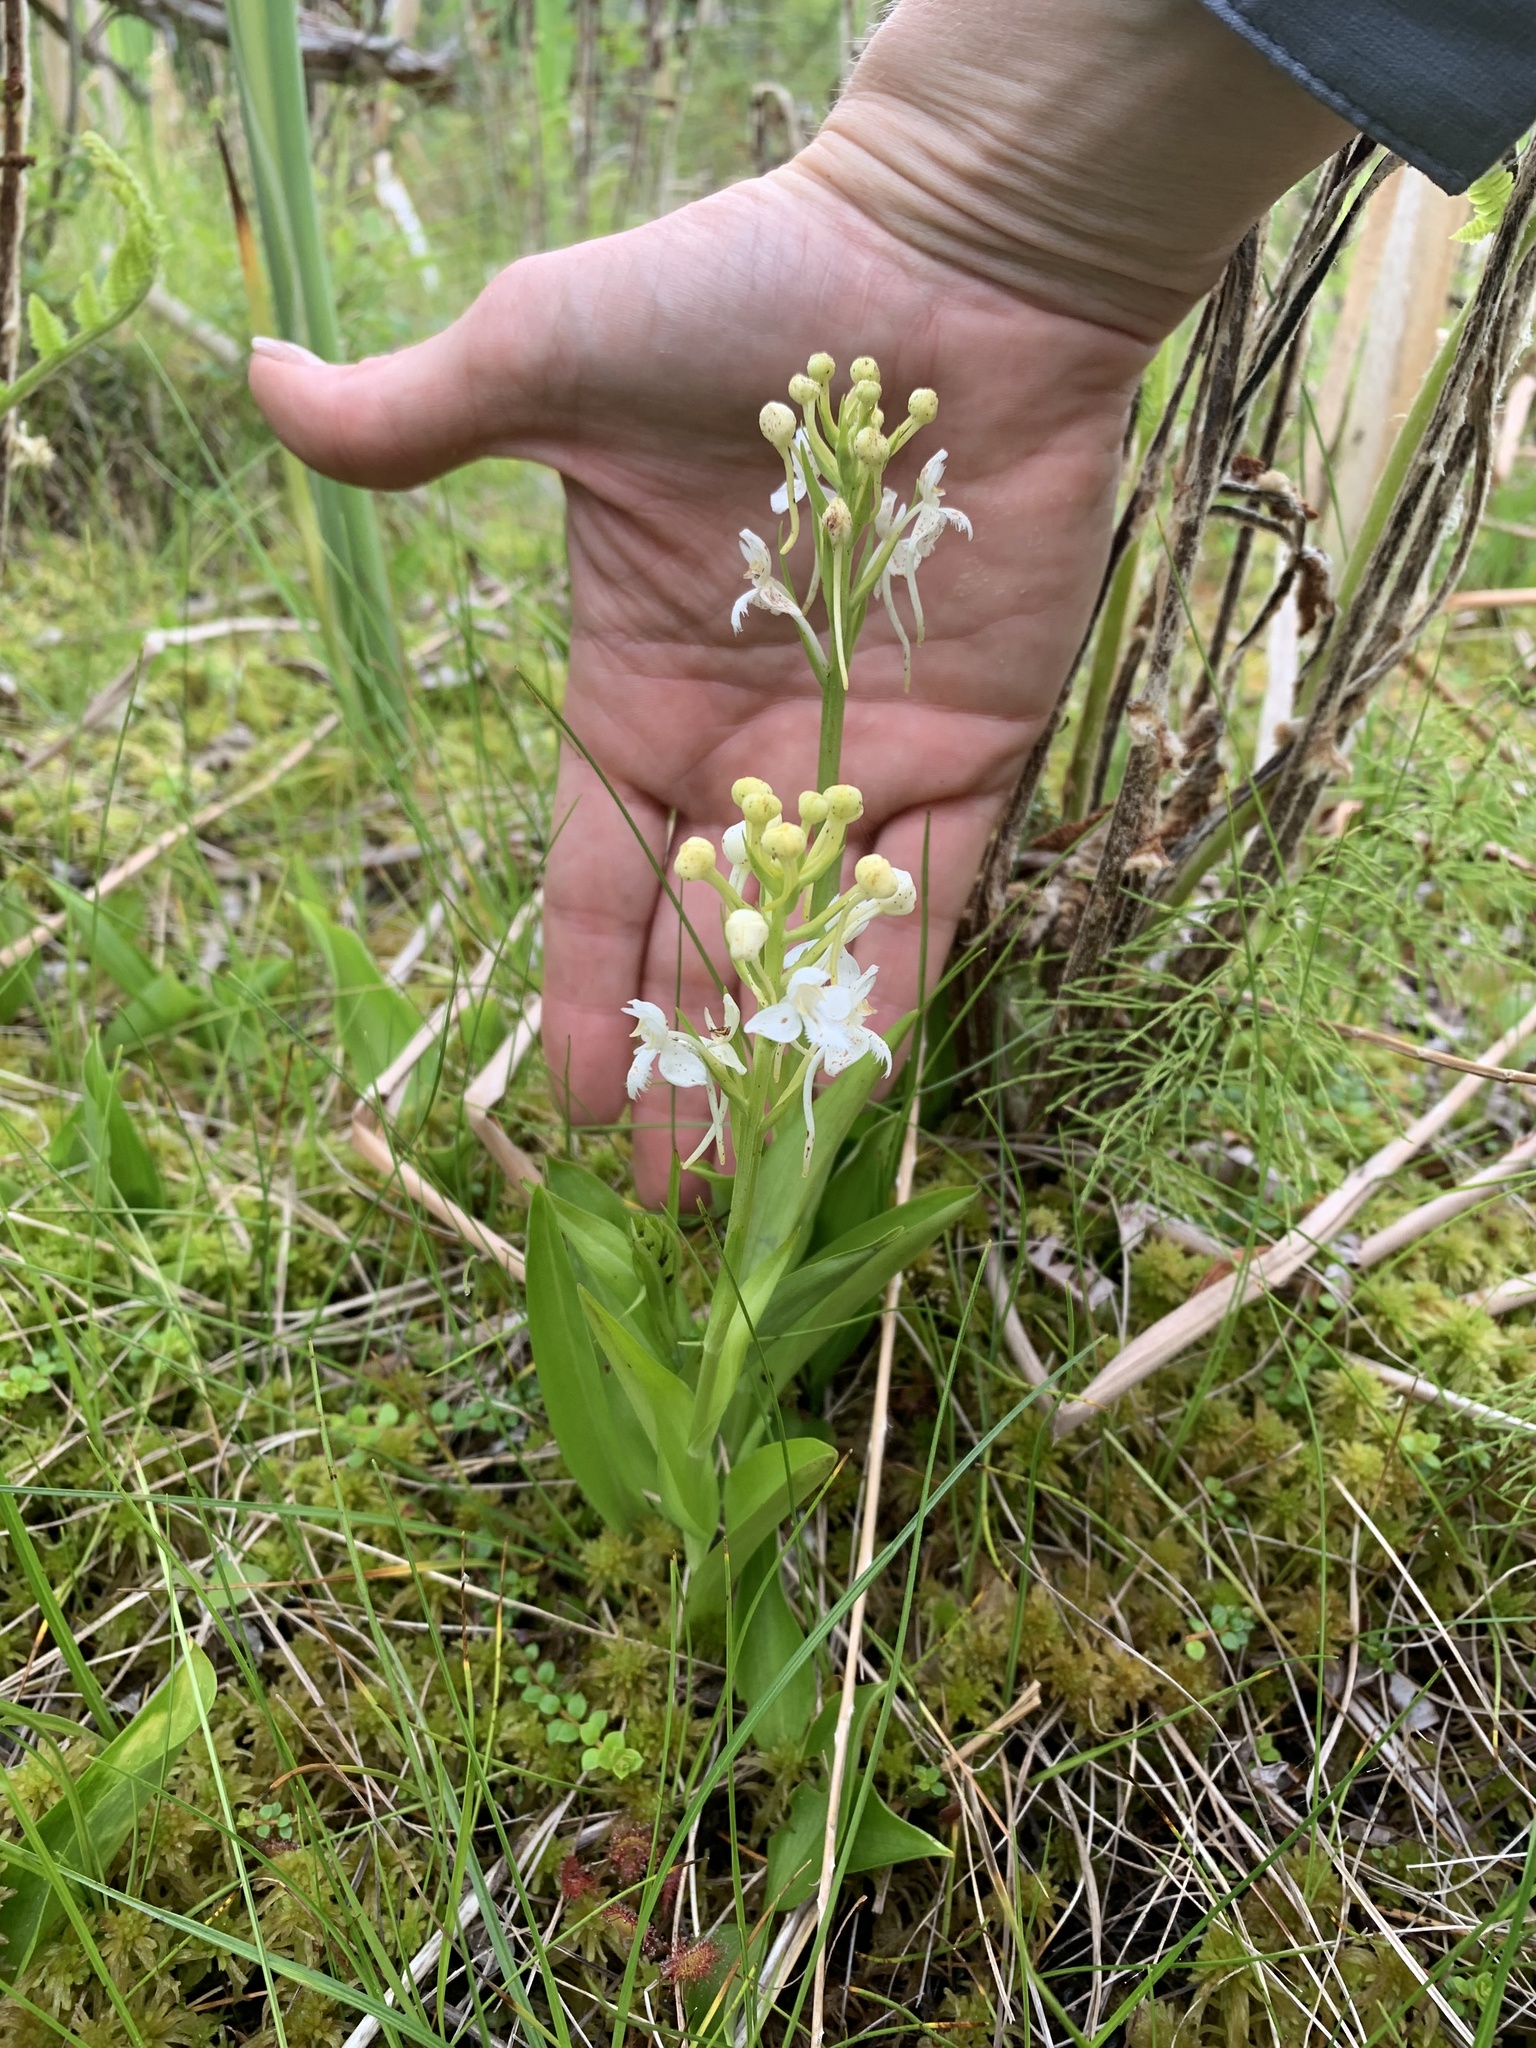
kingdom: Plantae
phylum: Tracheophyta
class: Liliopsida
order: Asparagales
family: Orchidaceae
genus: Platanthera
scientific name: Platanthera blephariglottis
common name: White fringed orchid
